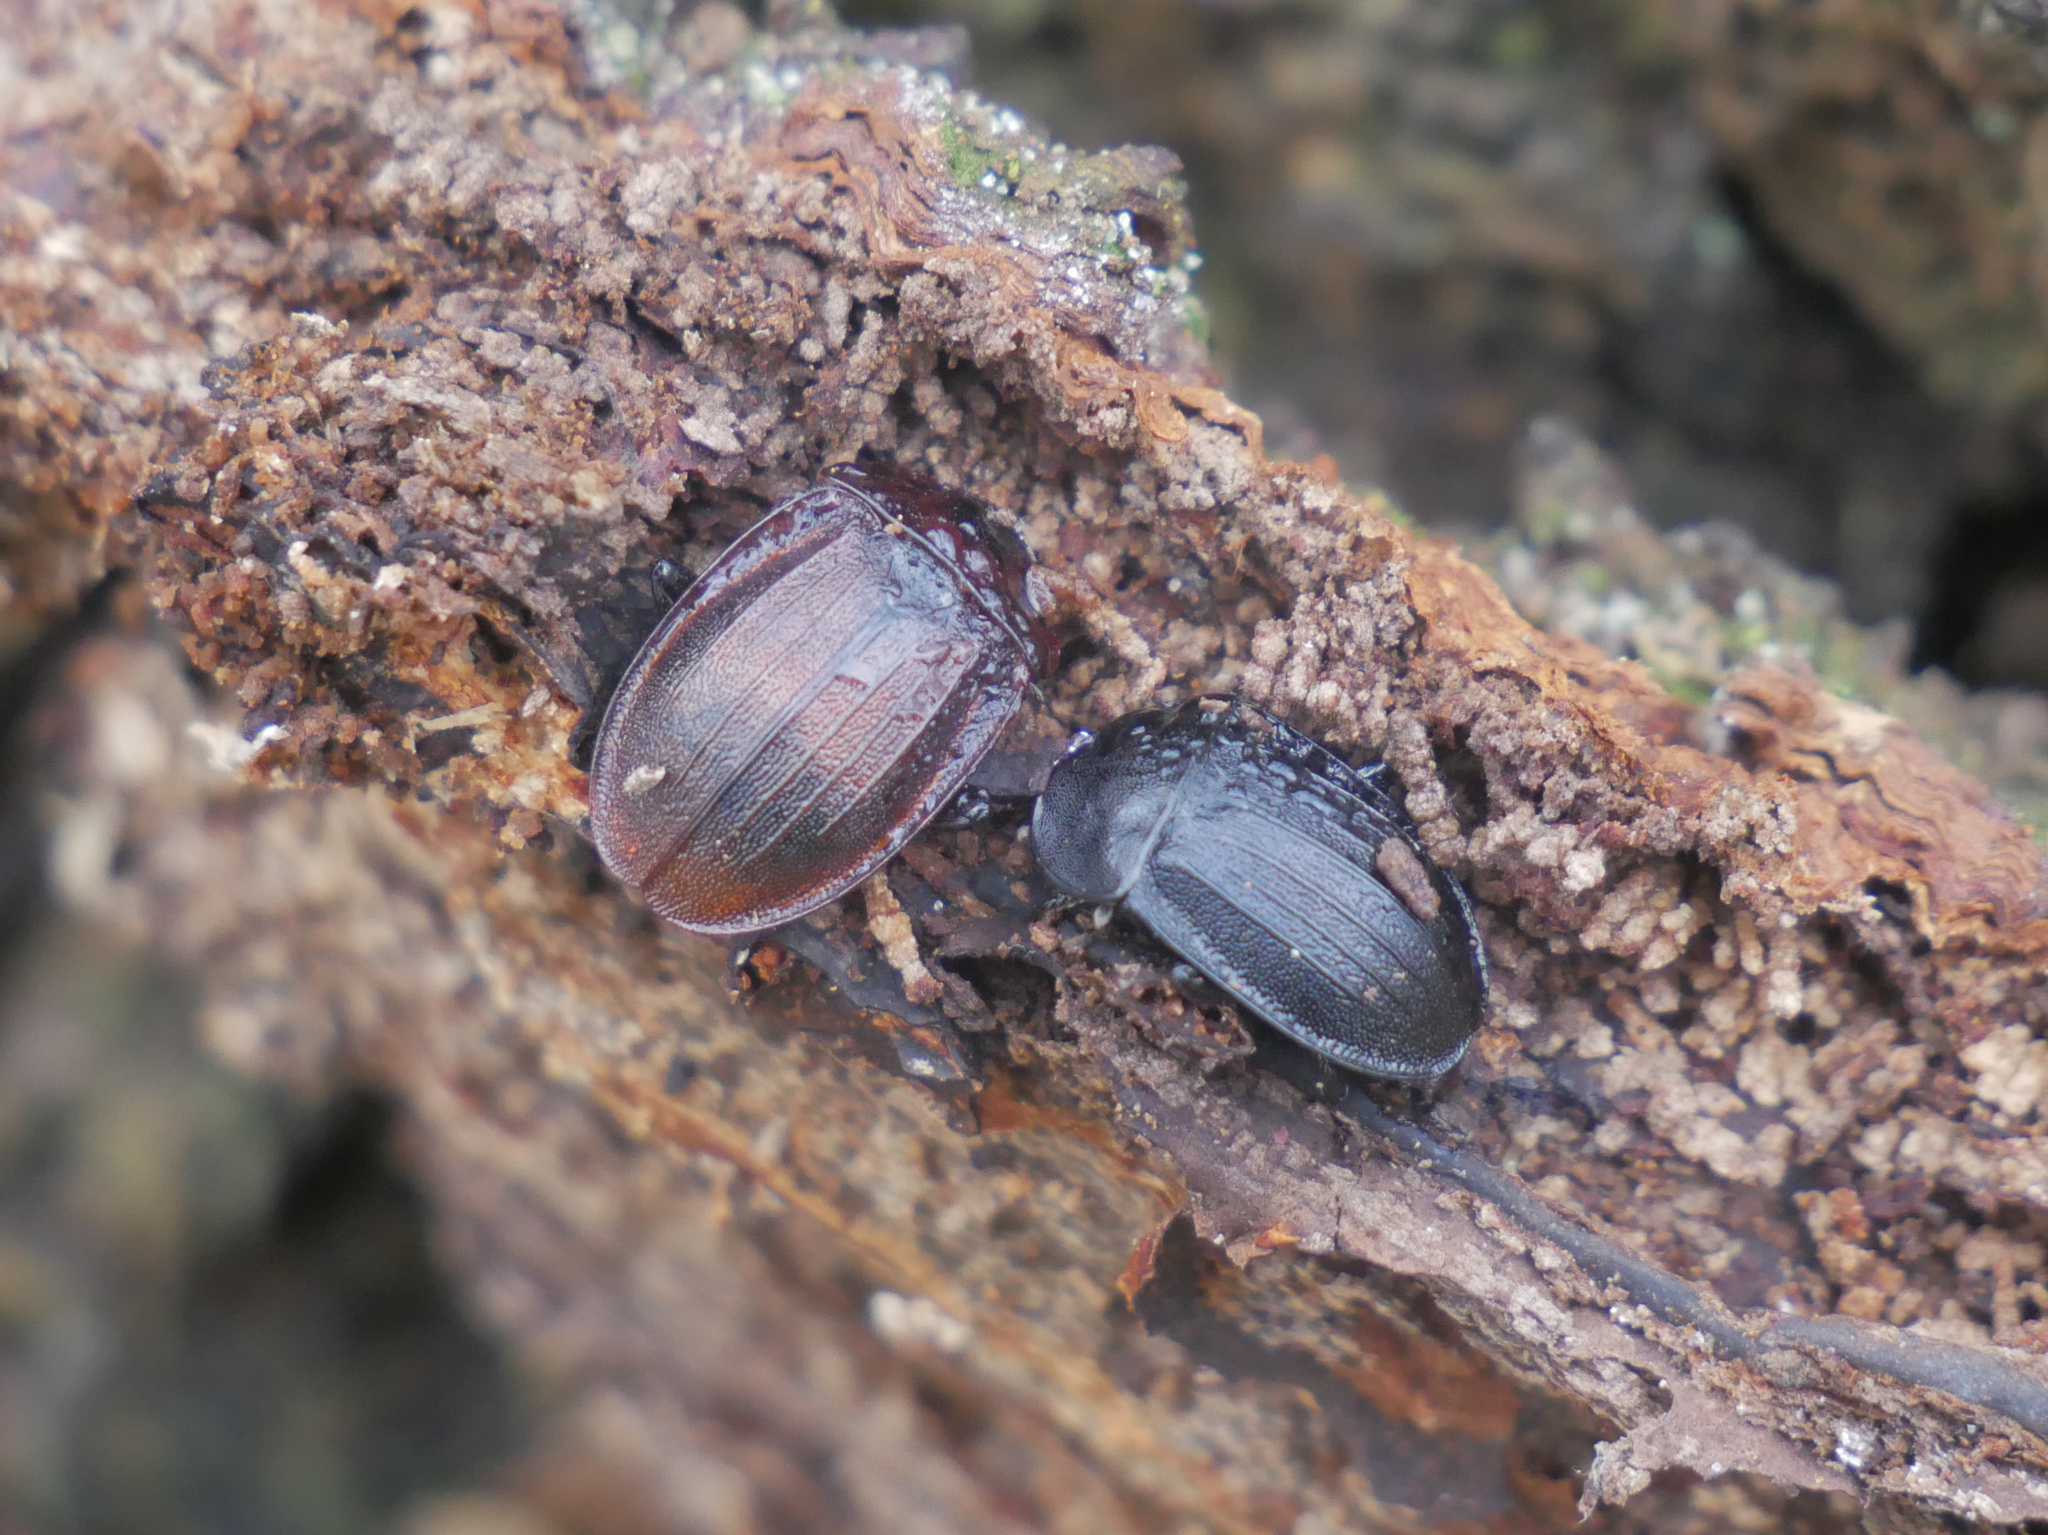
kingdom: Animalia
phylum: Arthropoda
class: Insecta
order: Coleoptera
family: Staphylinidae
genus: Silpha
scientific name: Silpha atrata
